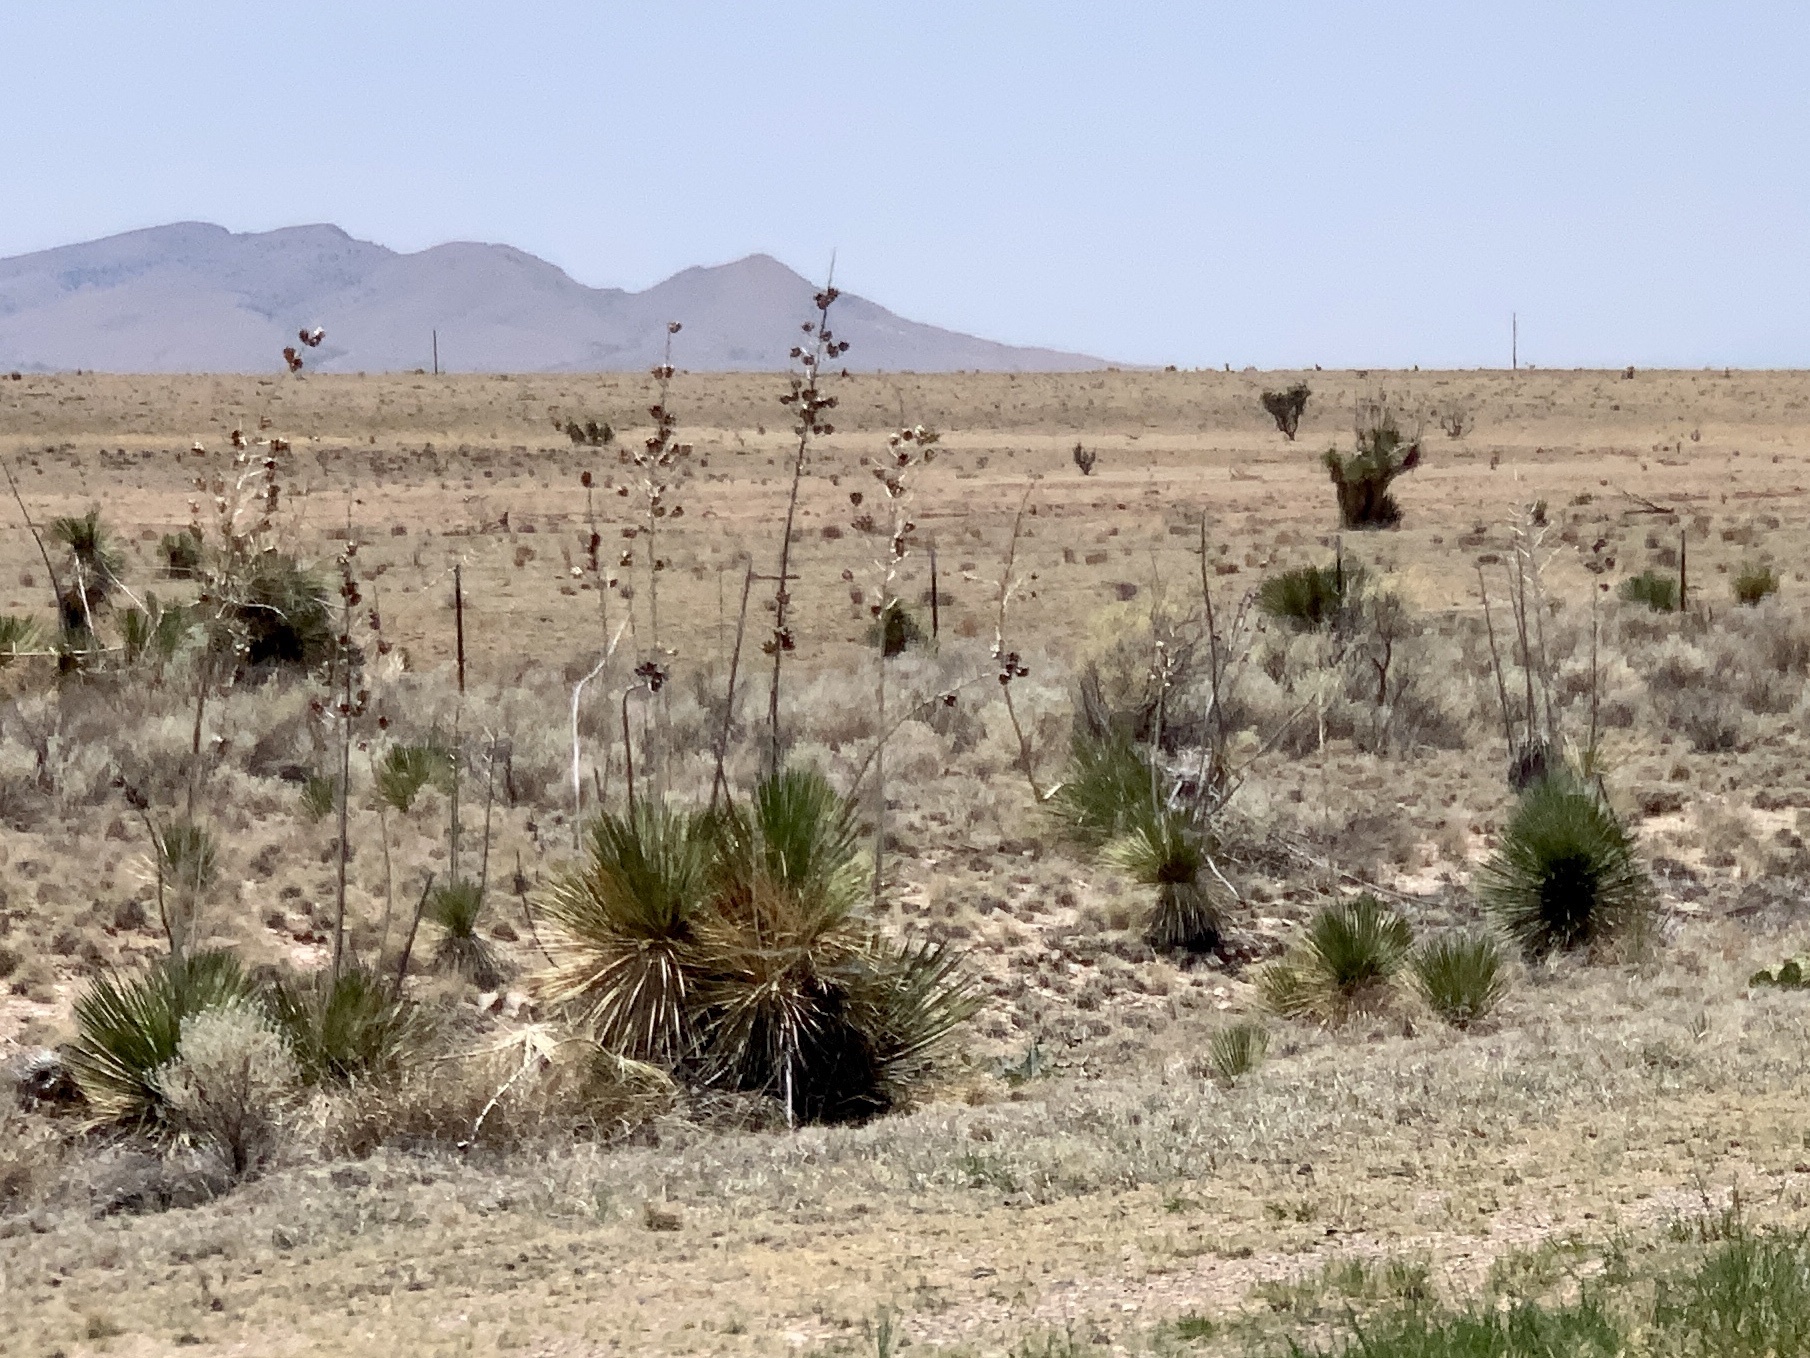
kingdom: Plantae
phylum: Tracheophyta
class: Liliopsida
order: Asparagales
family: Asparagaceae
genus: Yucca
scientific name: Yucca elata
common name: Palmella
